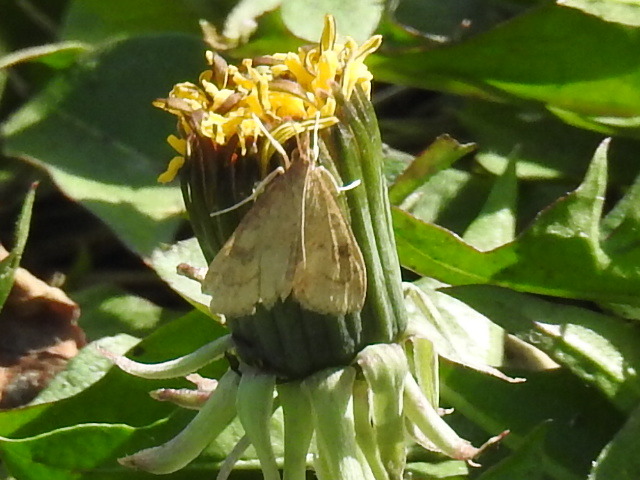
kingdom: Animalia
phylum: Arthropoda
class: Insecta
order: Lepidoptera
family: Crambidae
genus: Udea
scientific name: Udea rubigalis
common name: Celery leaftier moth
